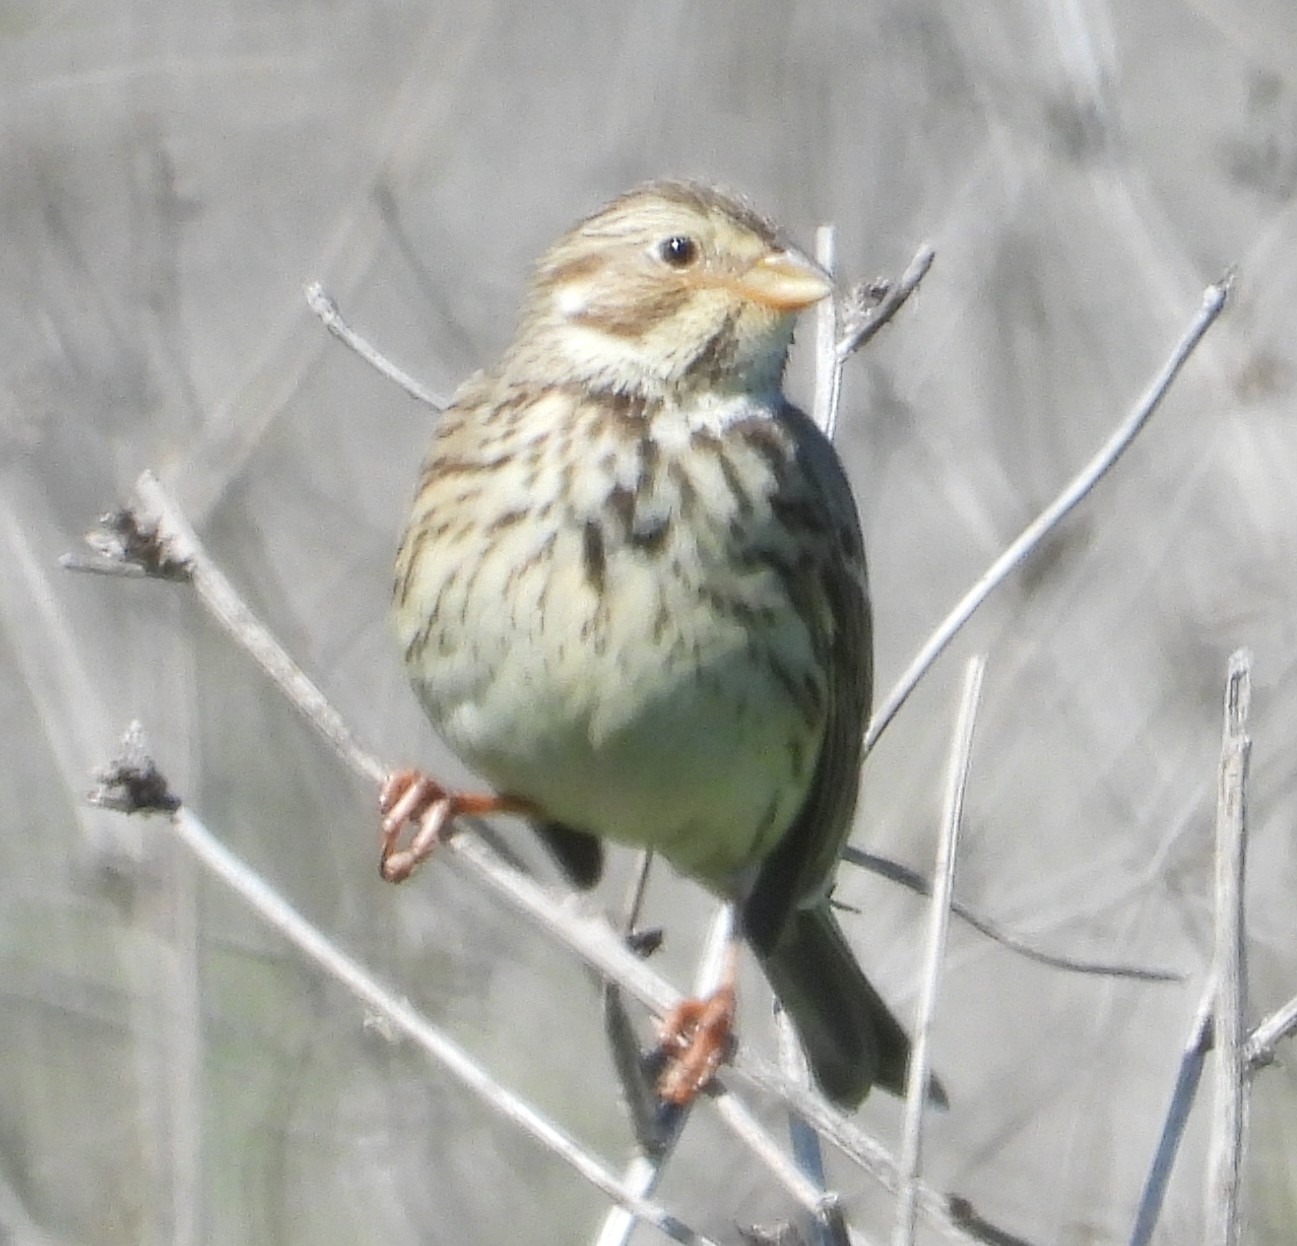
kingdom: Animalia
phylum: Chordata
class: Aves
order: Passeriformes
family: Emberizidae
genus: Emberiza
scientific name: Emberiza calandra
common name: Corn bunting
